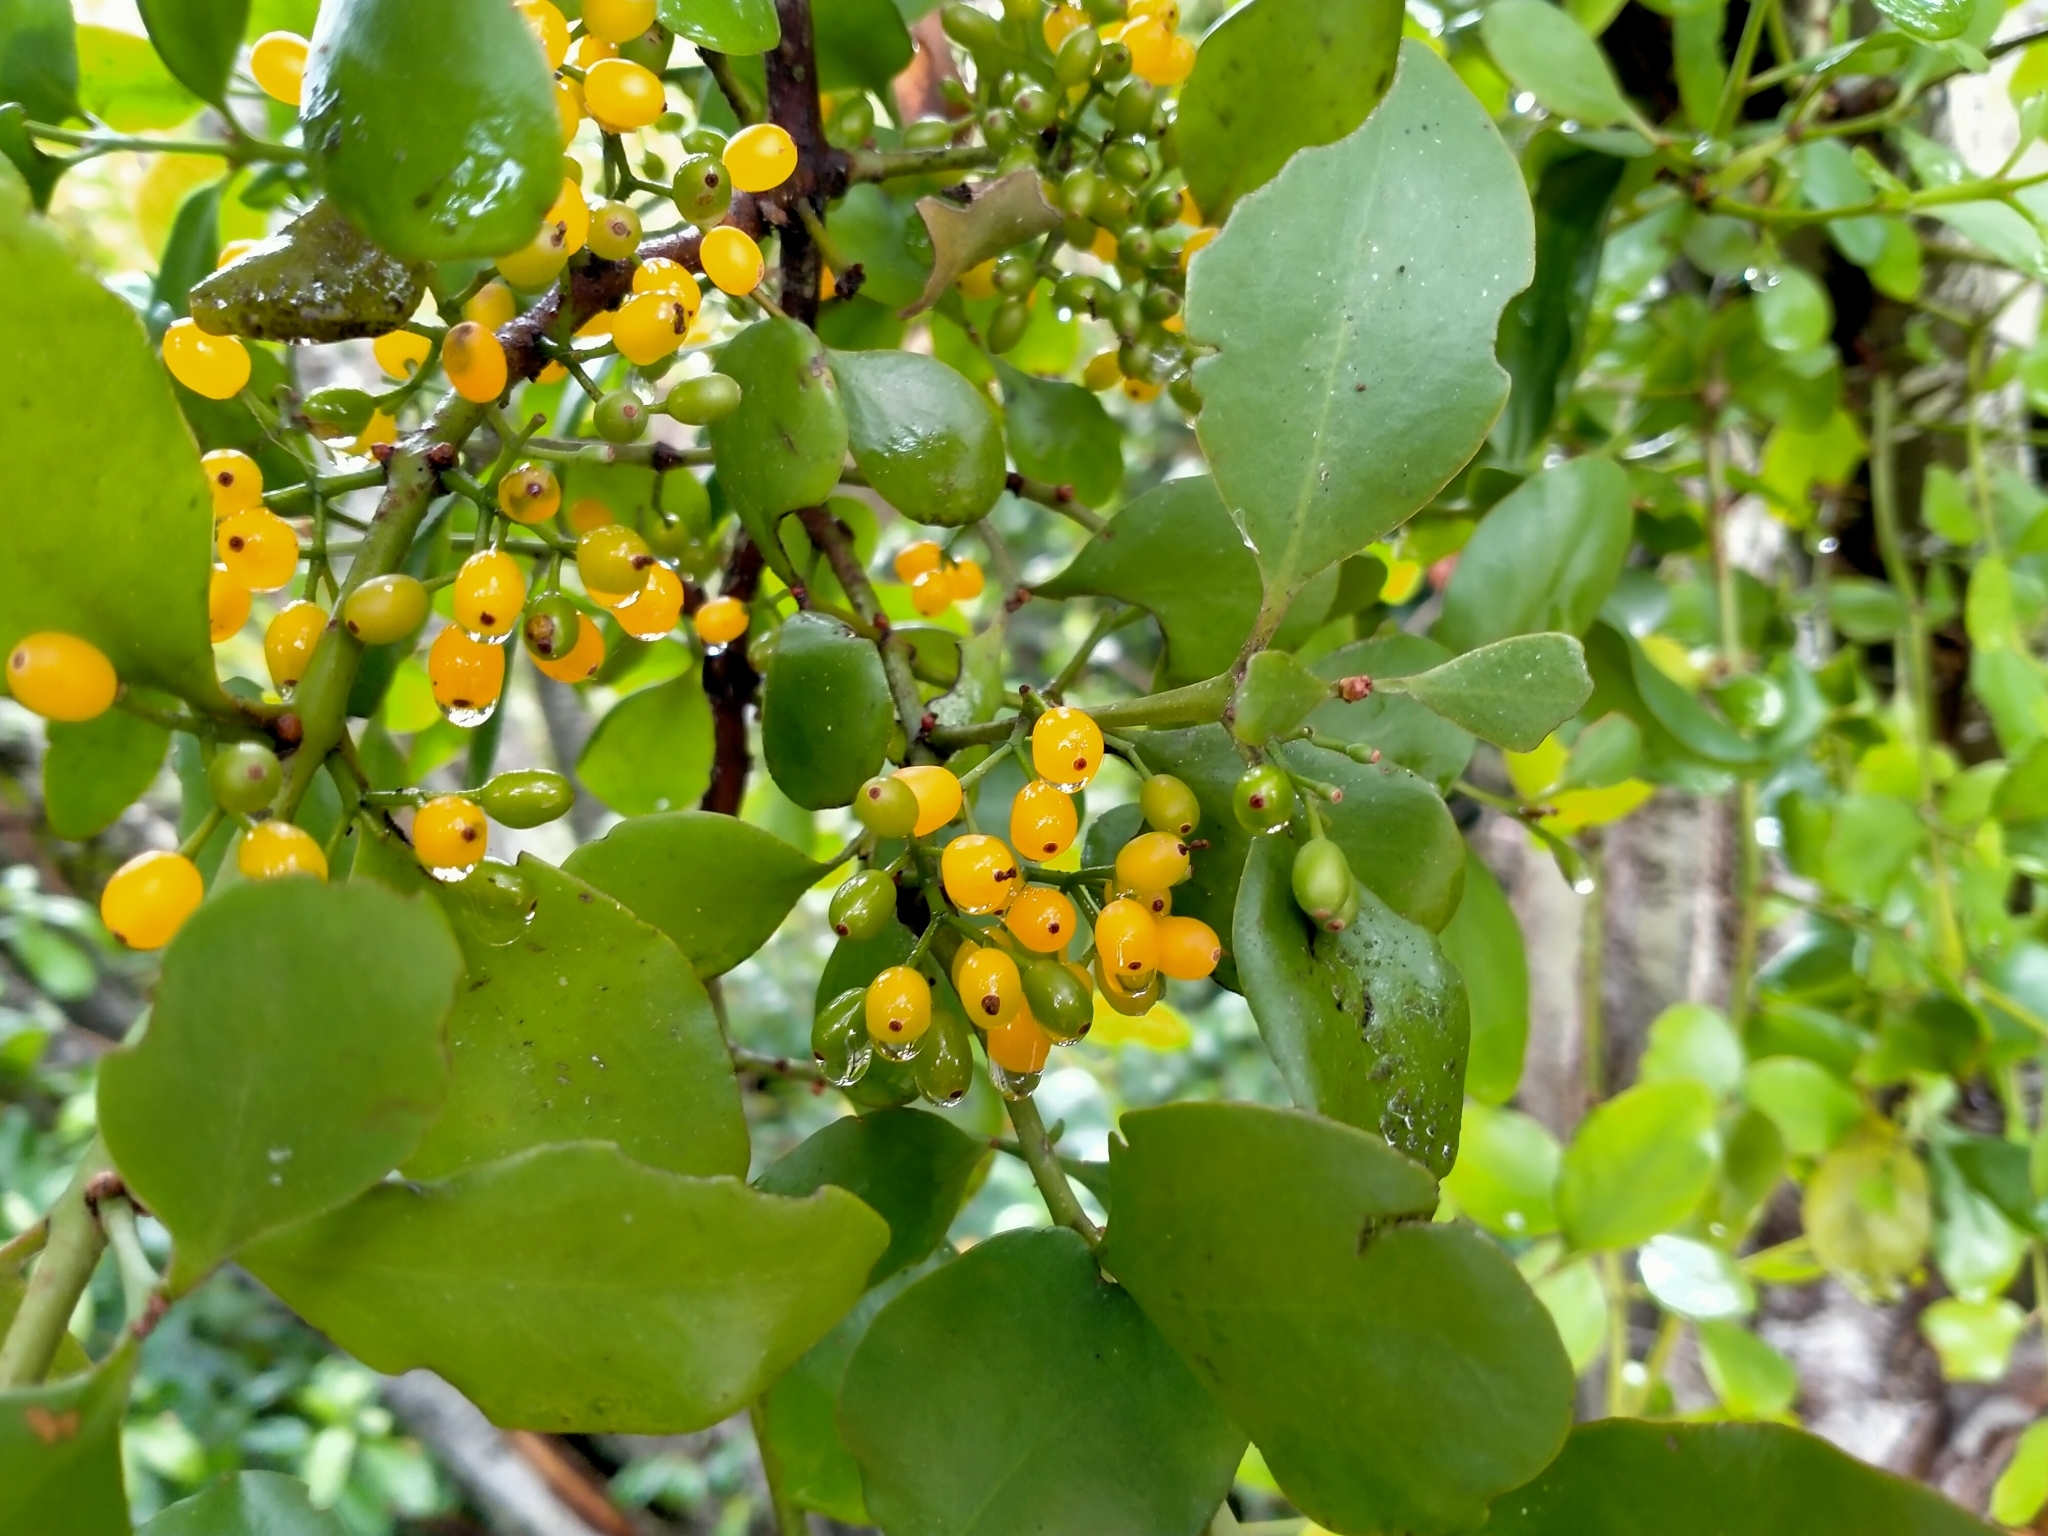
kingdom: Plantae
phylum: Tracheophyta
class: Magnoliopsida
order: Santalales
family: Loranthaceae
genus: Ileostylus
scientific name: Ileostylus micranthus
